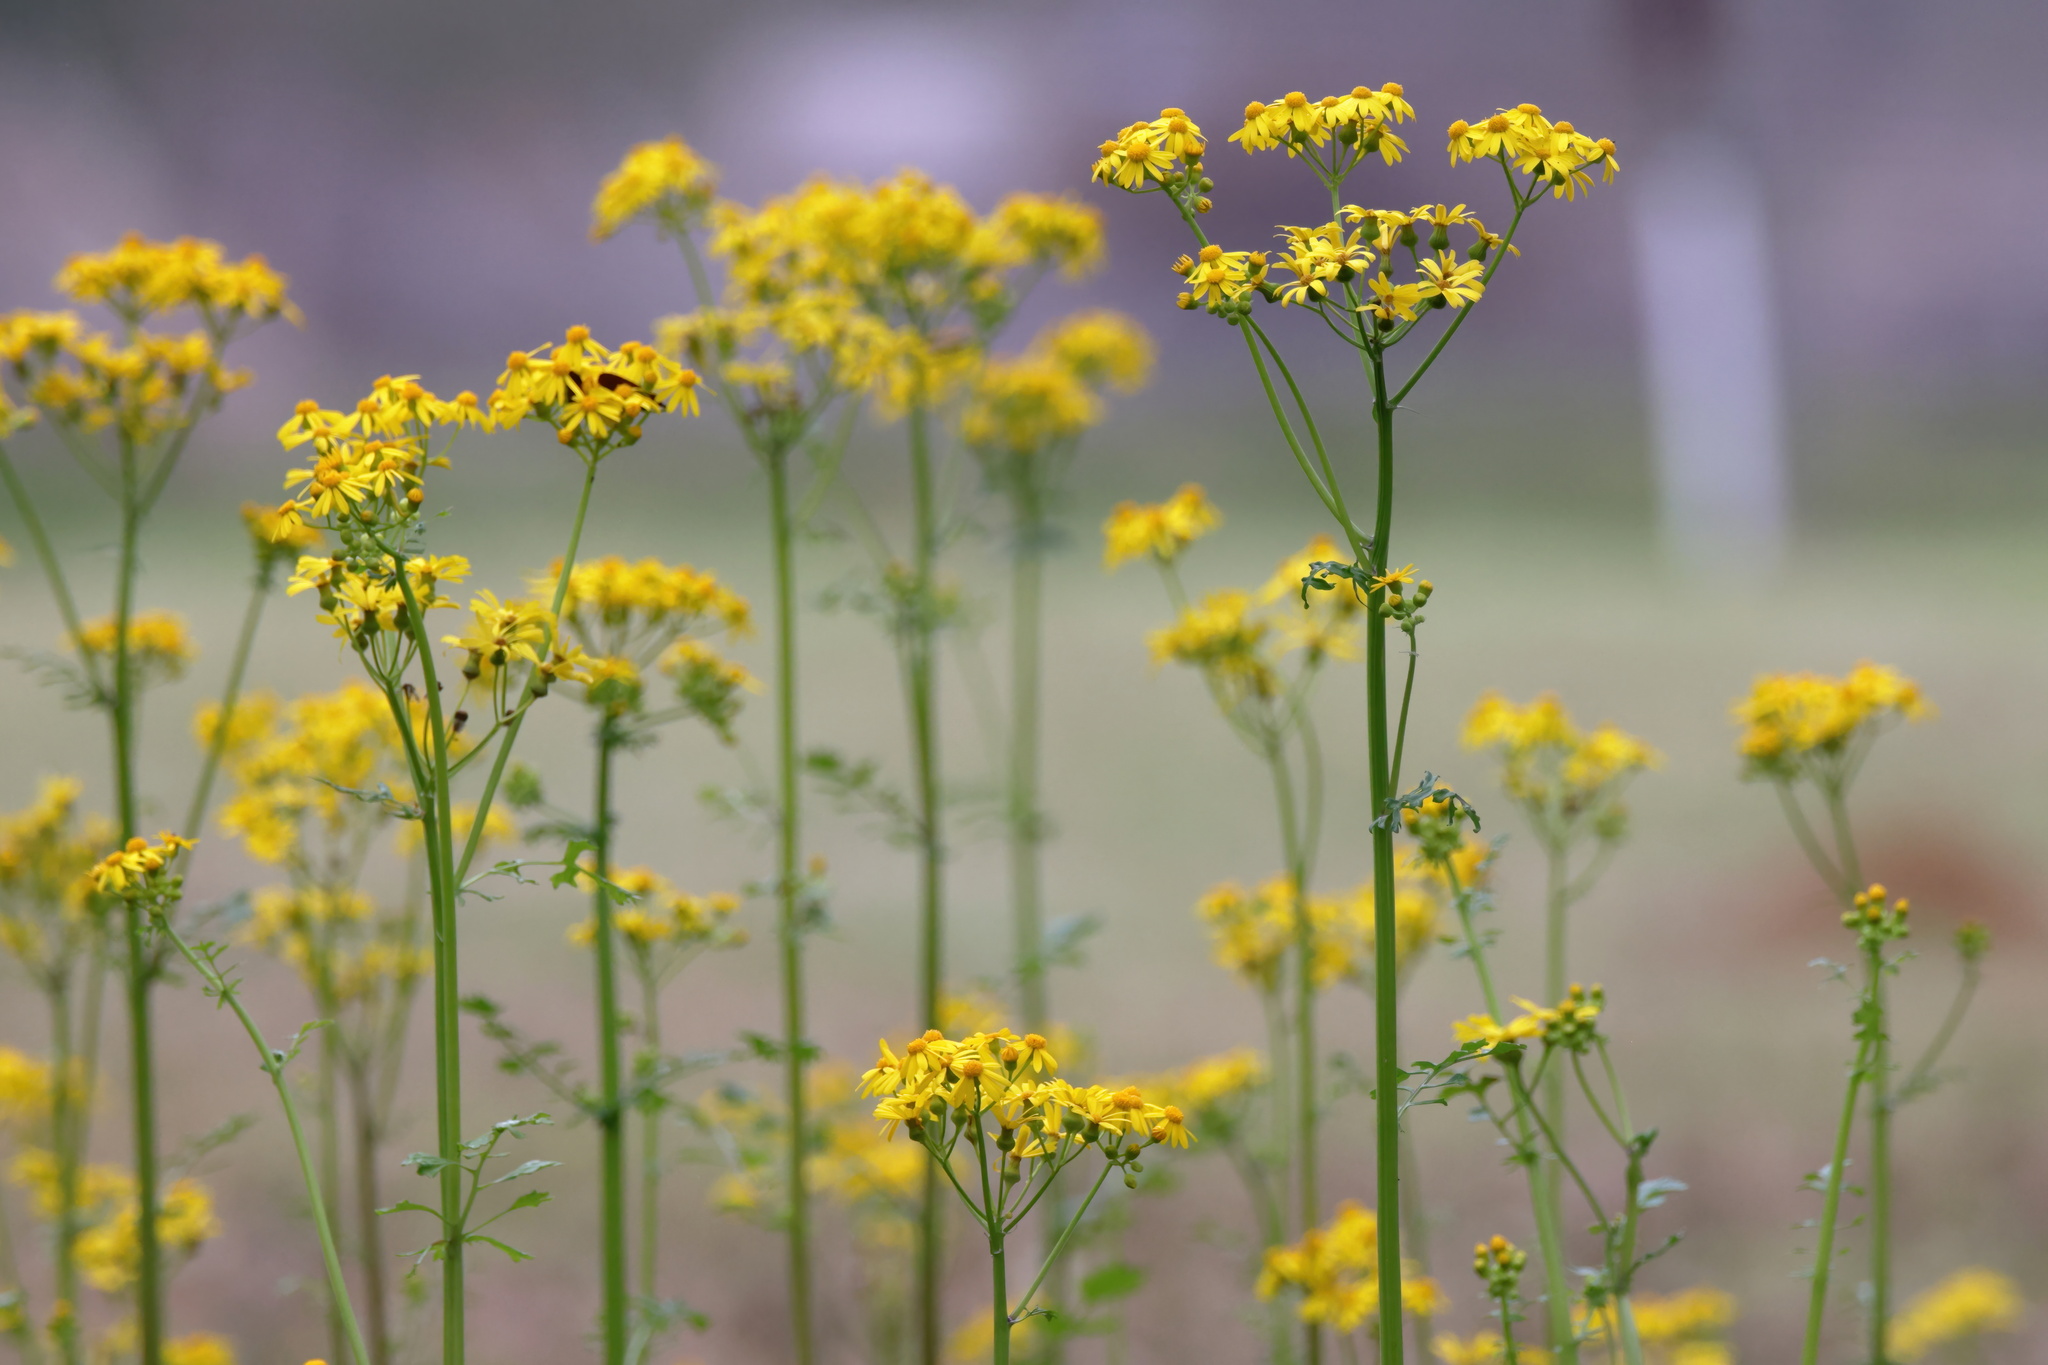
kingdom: Plantae
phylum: Tracheophyta
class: Magnoliopsida
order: Asterales
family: Asteraceae
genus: Packera
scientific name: Packera glabella
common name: Butterweed
